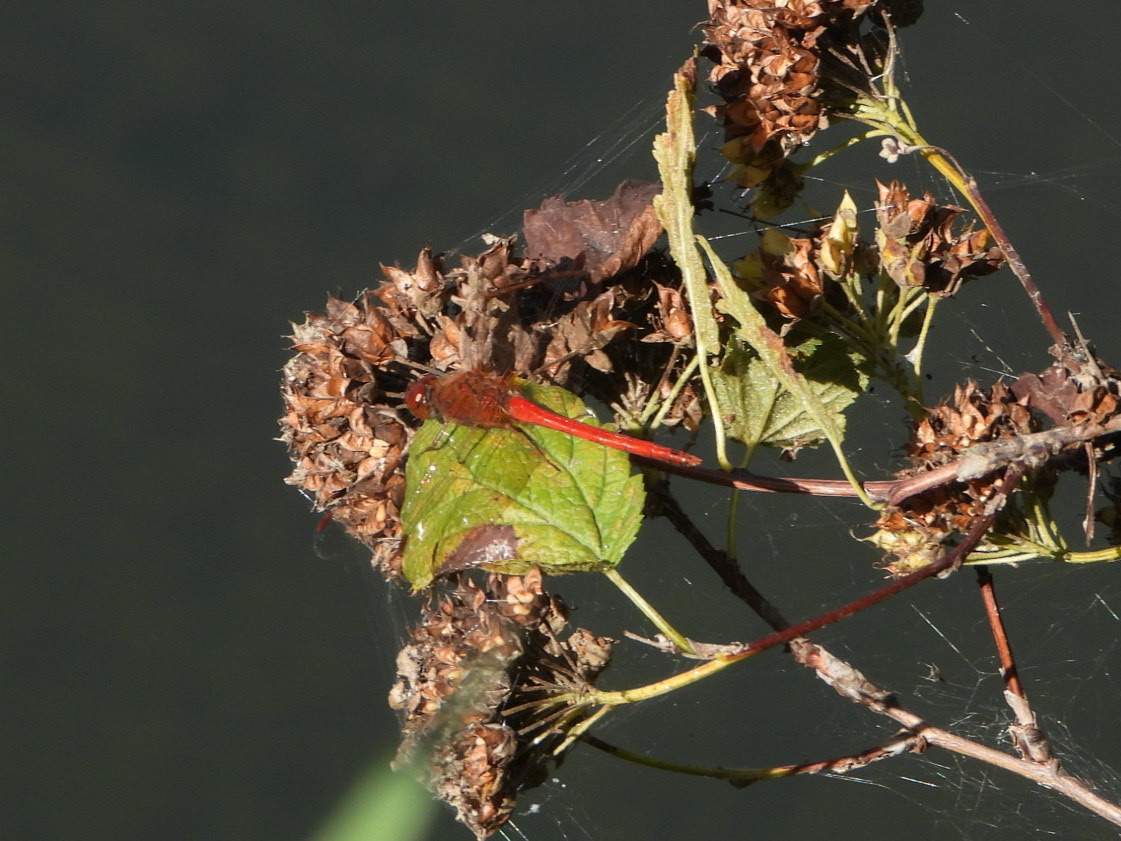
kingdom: Animalia
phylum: Arthropoda
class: Insecta
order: Odonata
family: Libellulidae
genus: Sympetrum
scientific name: Sympetrum vicinum
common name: Autumn meadowhawk
